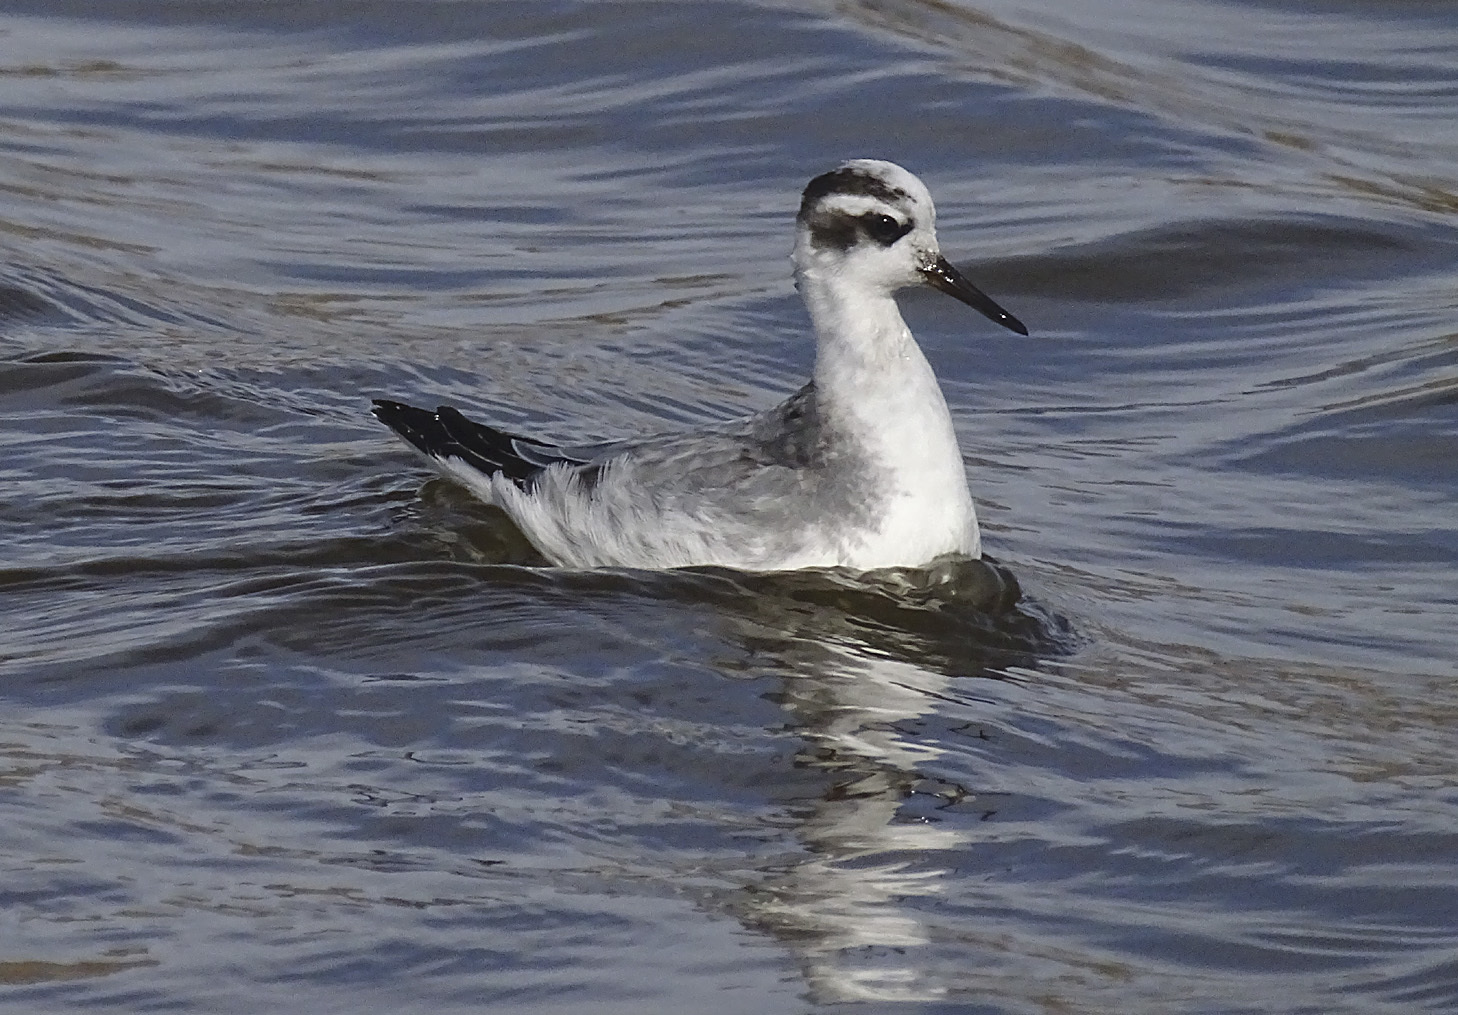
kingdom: Animalia
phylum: Chordata
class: Aves
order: Charadriiformes
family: Scolopacidae
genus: Phalaropus
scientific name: Phalaropus fulicarius
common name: Red phalarope
